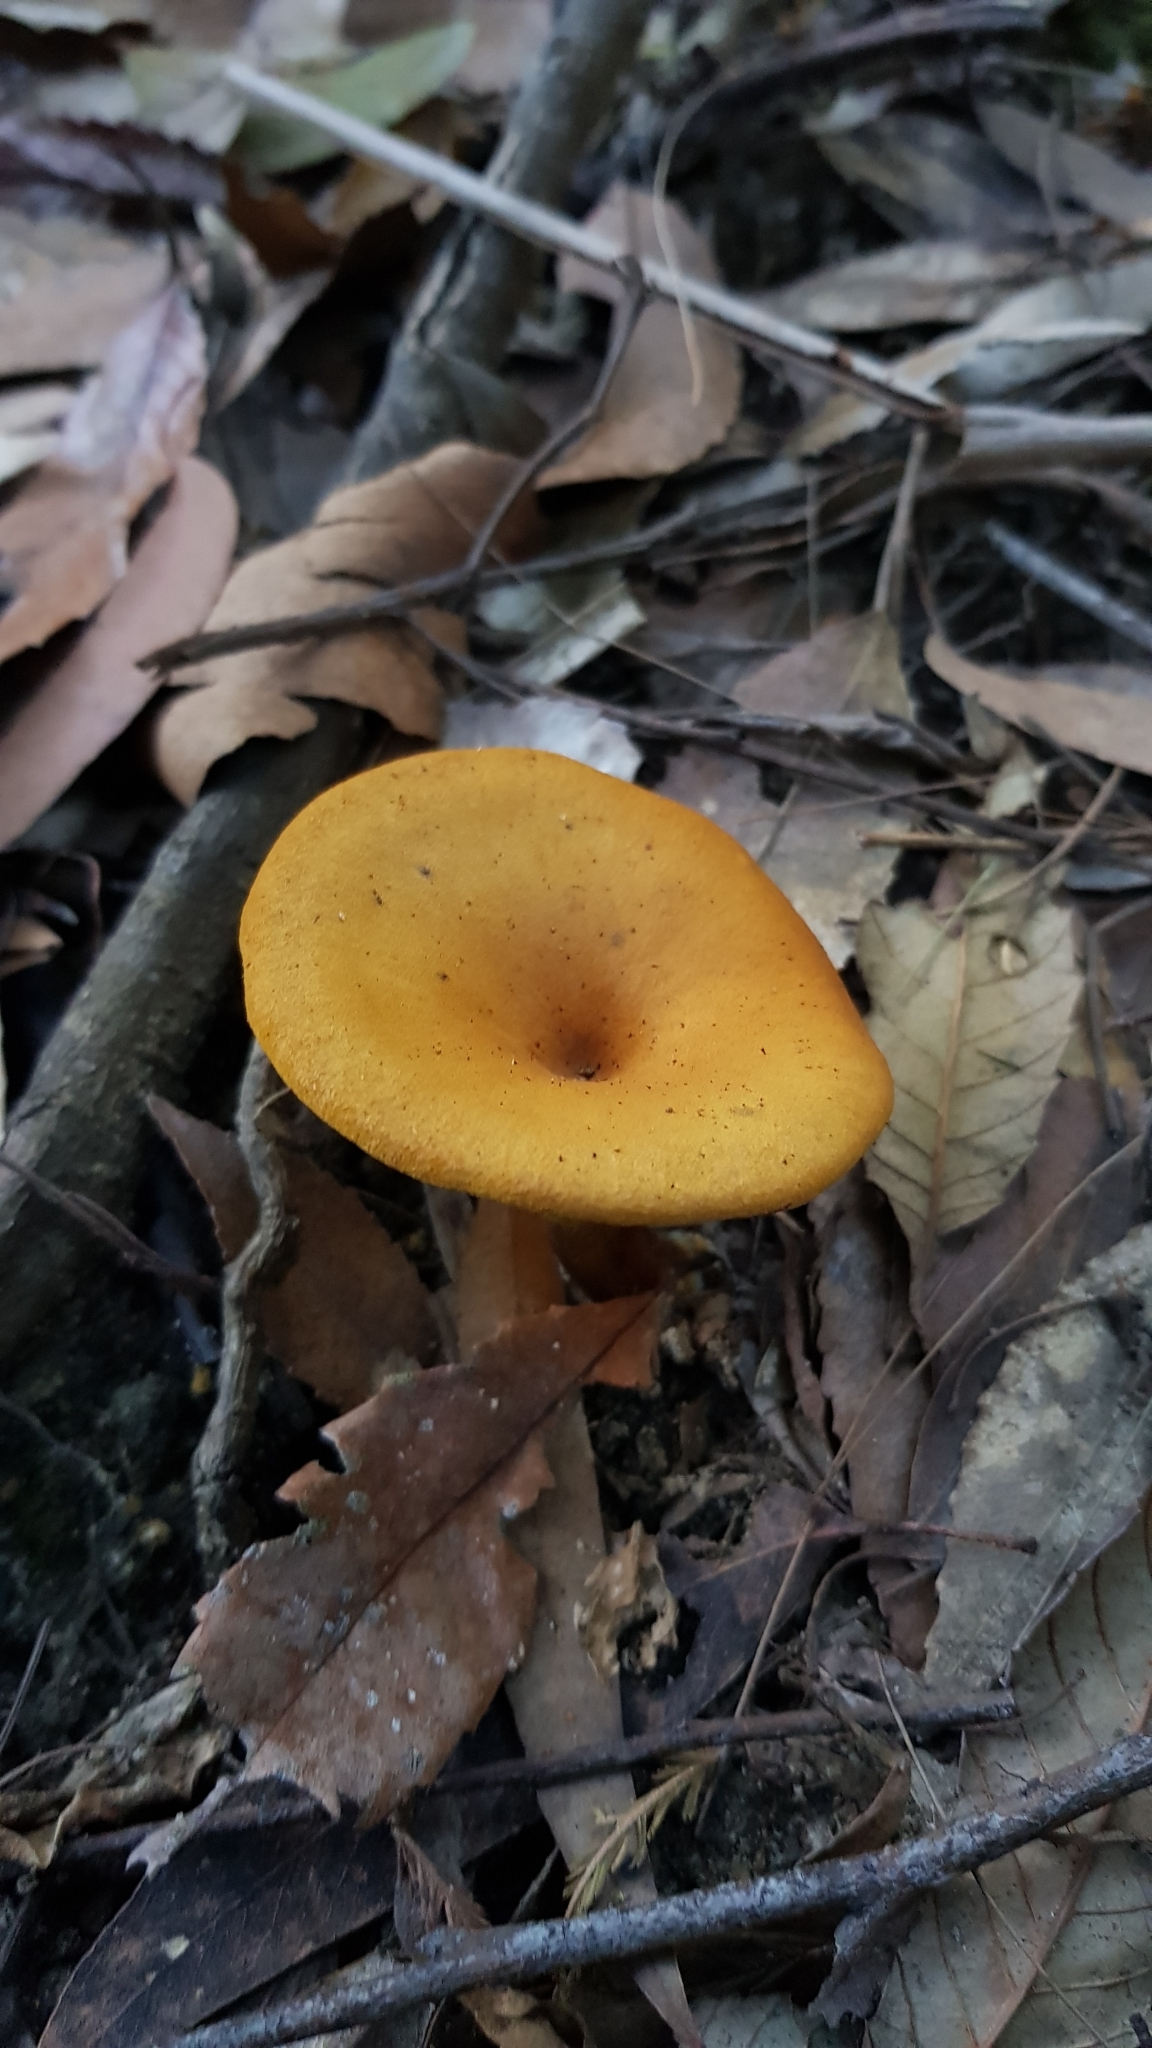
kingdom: Fungi
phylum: Basidiomycota
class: Agaricomycetes
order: Boletales
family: Serpulaceae
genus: Austropaxillus
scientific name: Austropaxillus infundibuliformis
